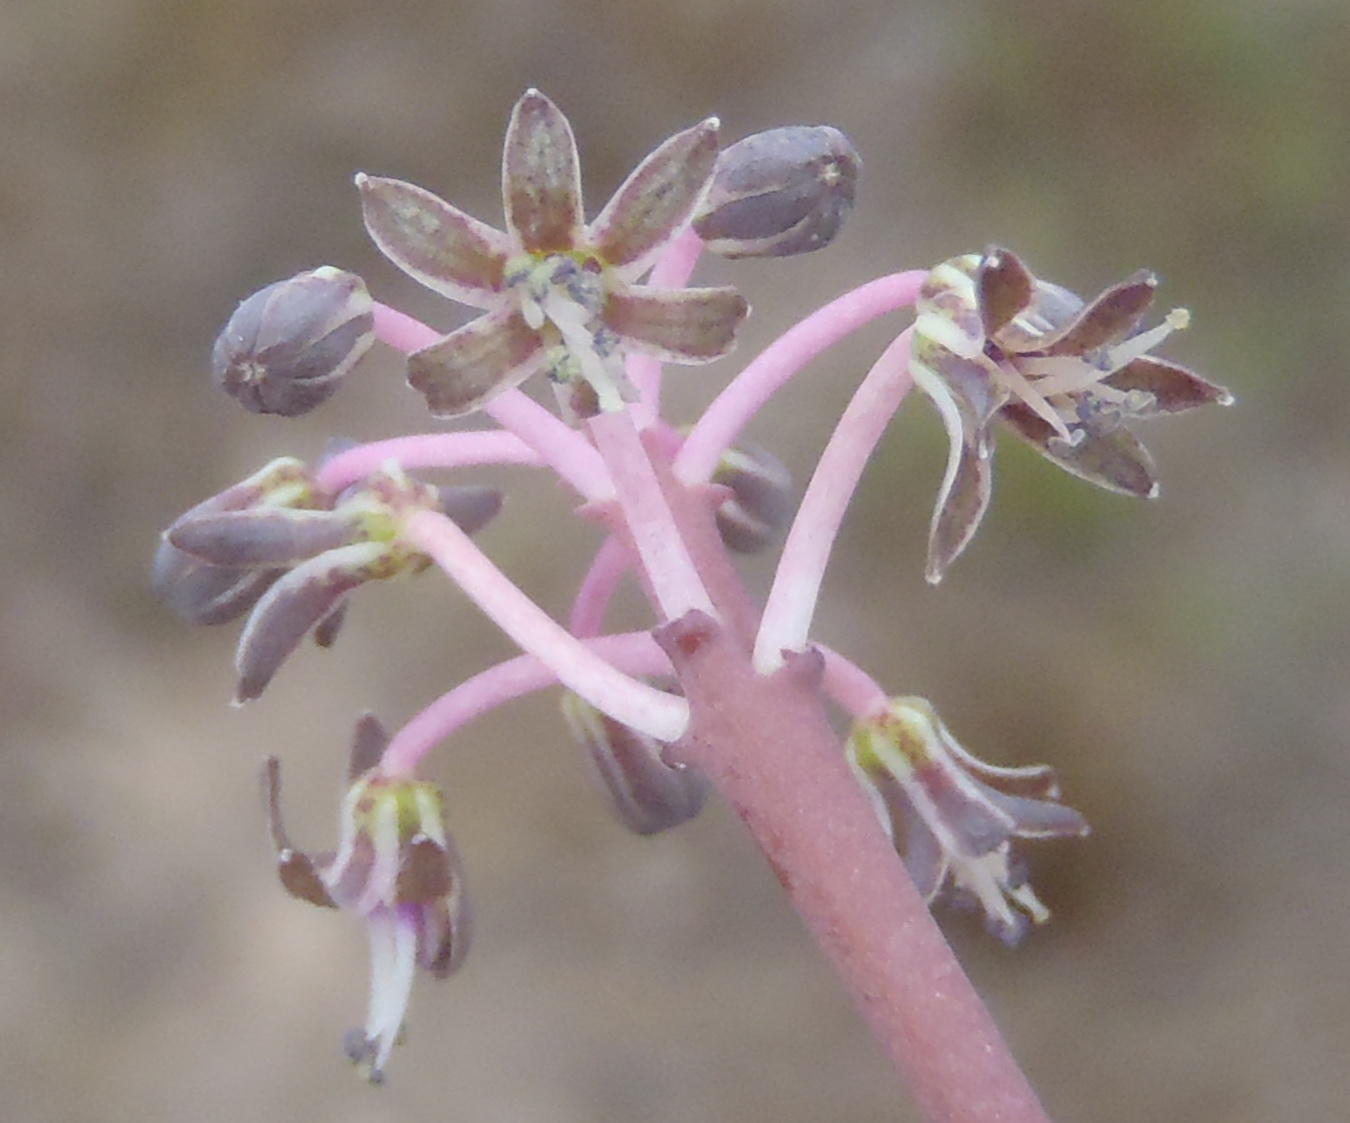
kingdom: Plantae
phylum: Tracheophyta
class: Liliopsida
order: Asparagales
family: Asparagaceae
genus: Ledebouria
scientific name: Ledebouria ovalifolia
